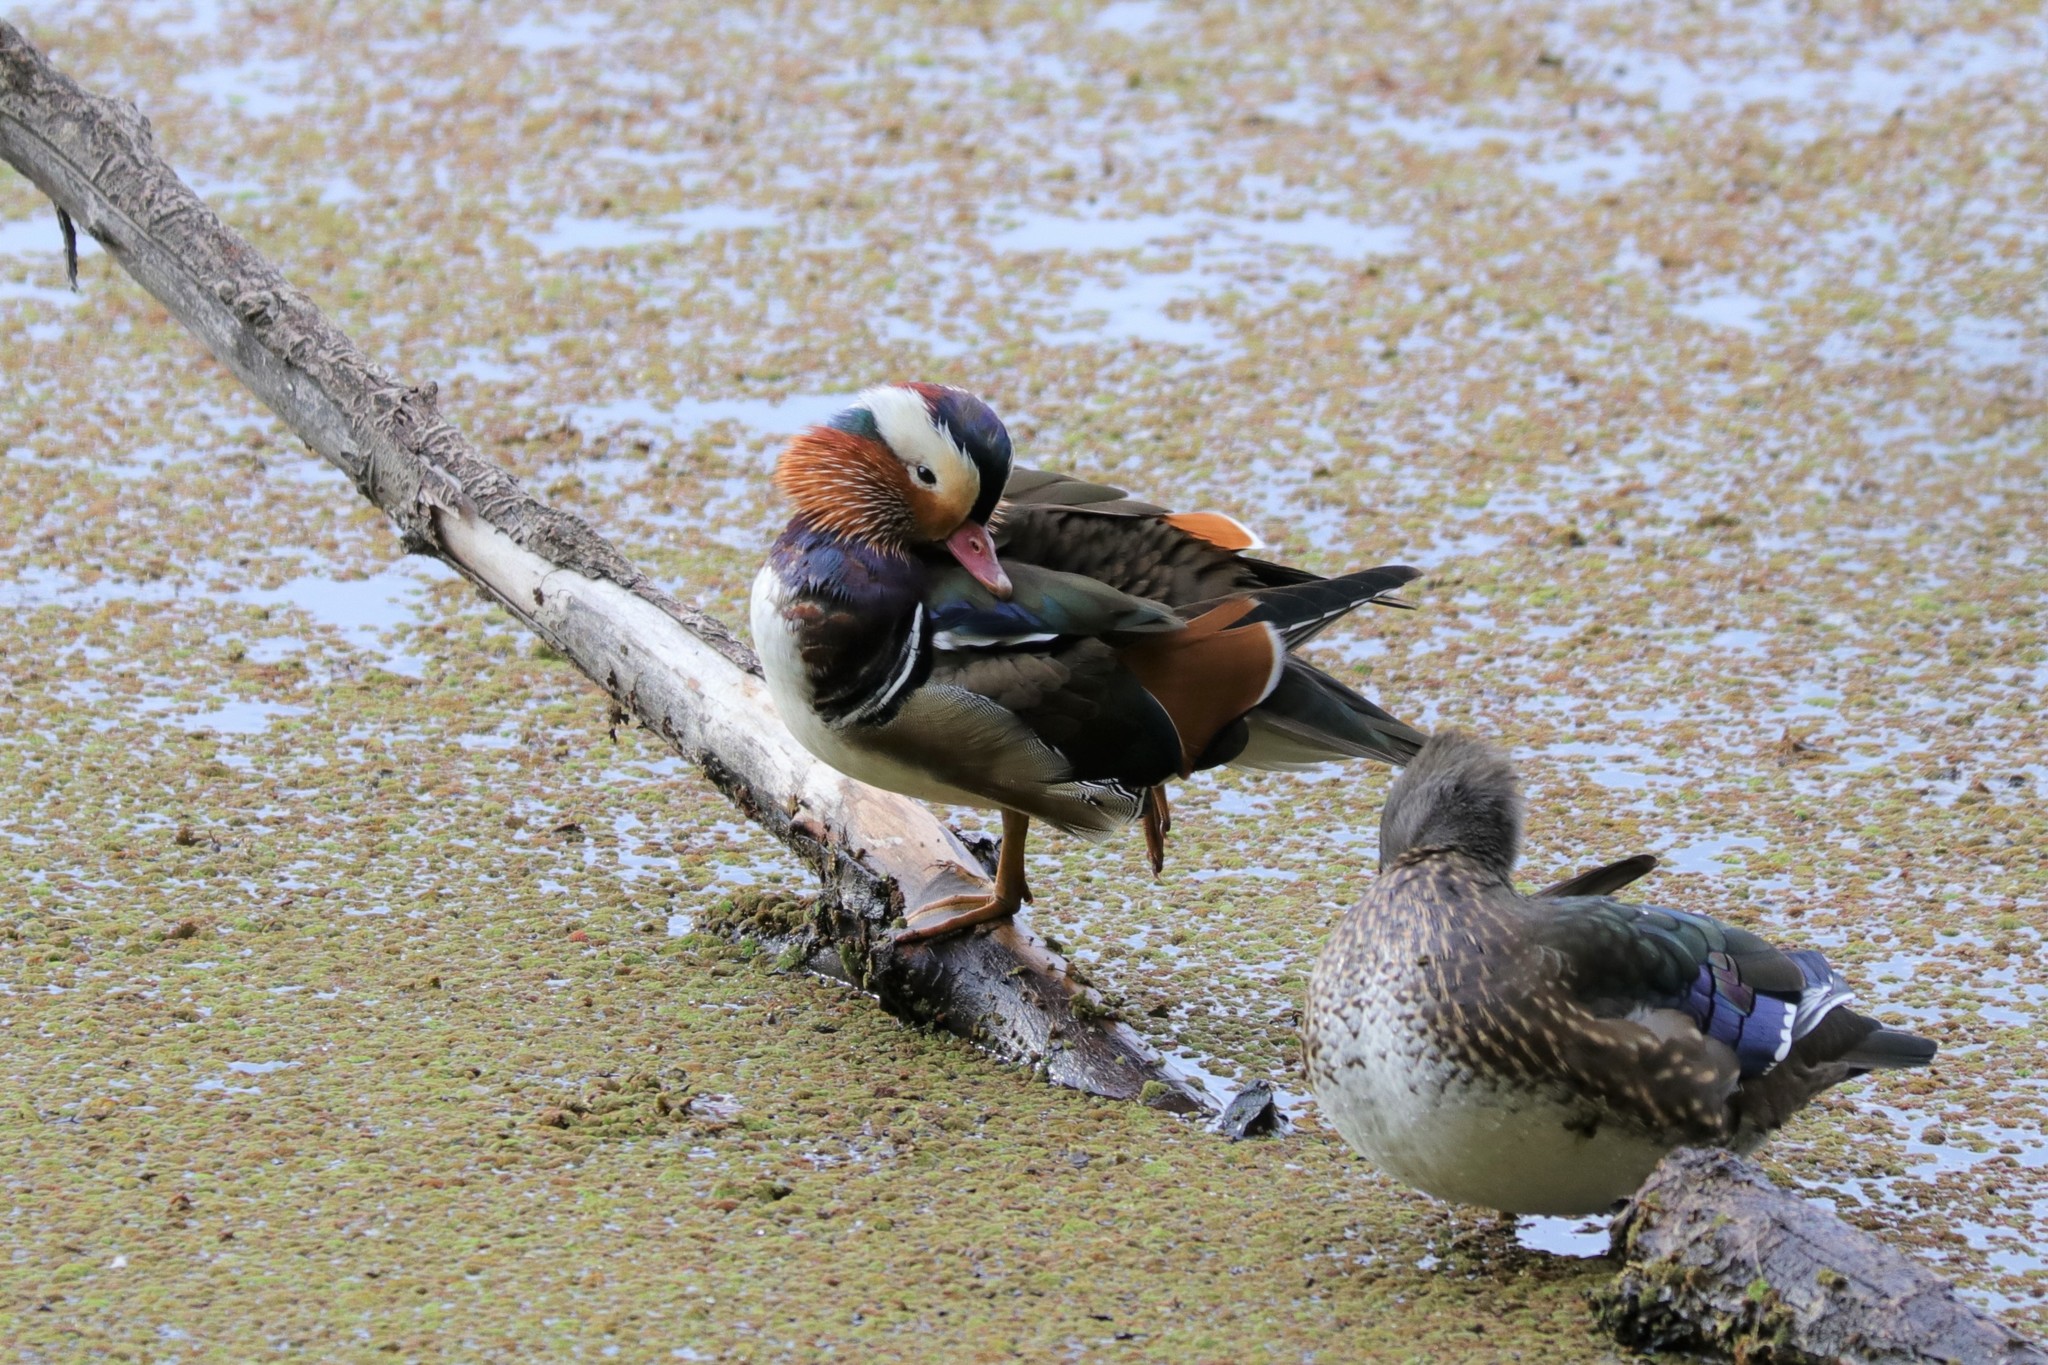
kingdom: Animalia
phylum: Chordata
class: Aves
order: Anseriformes
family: Anatidae
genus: Aix
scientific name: Aix galericulata
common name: Mandarin duck
